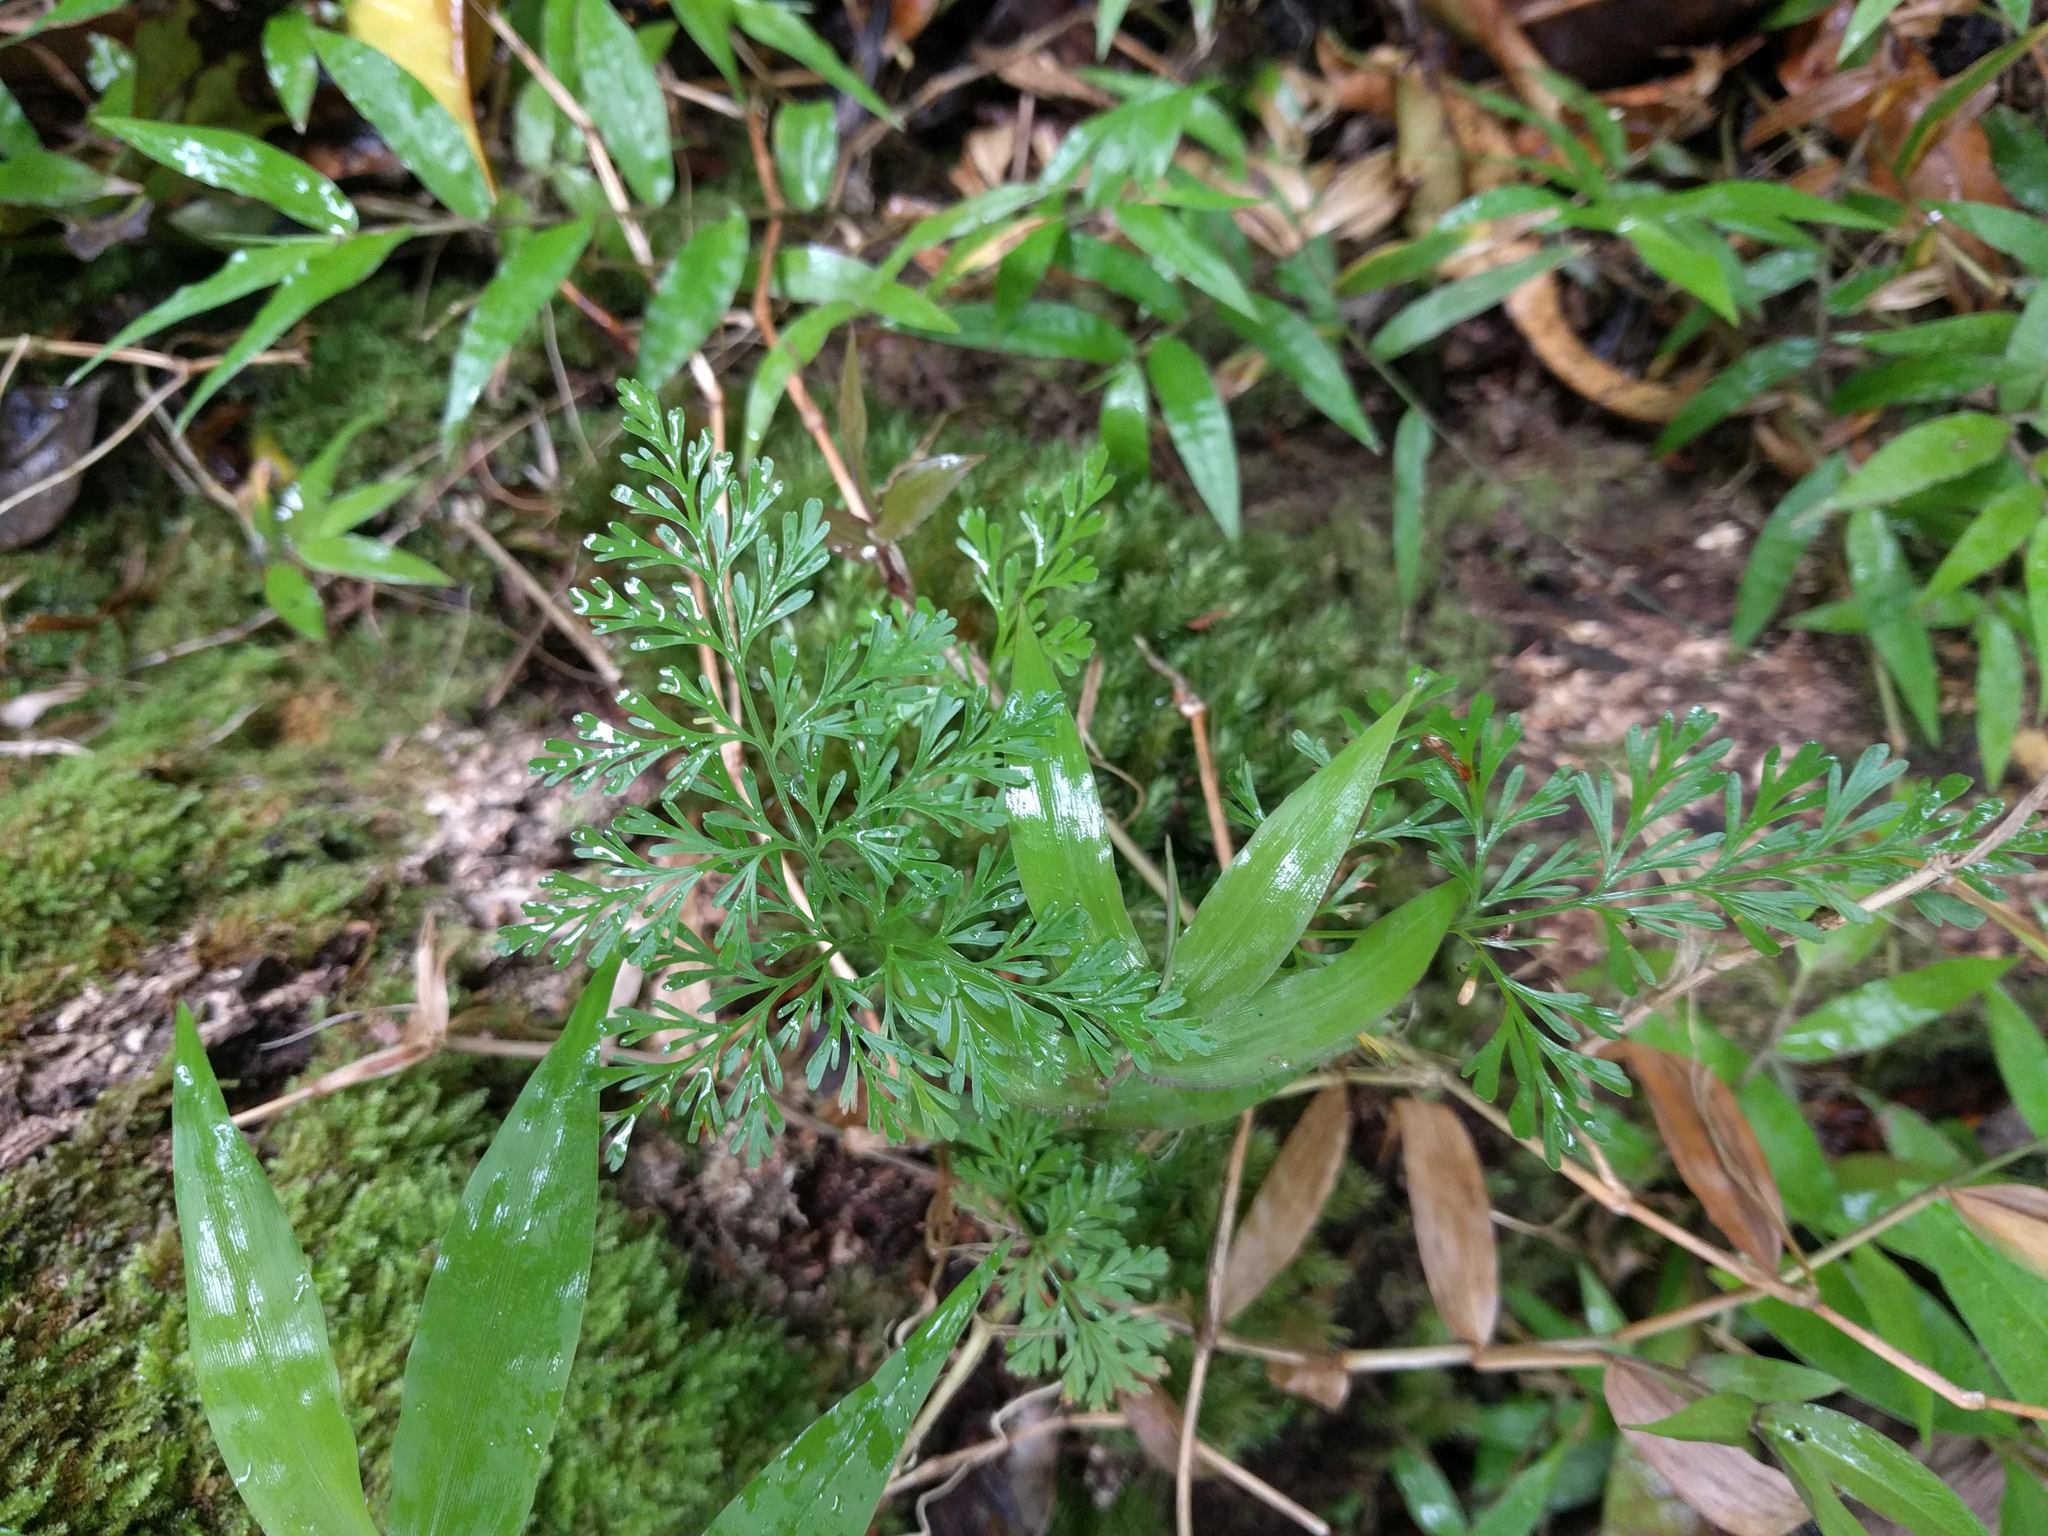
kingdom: Plantae
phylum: Tracheophyta
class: Polypodiopsida
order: Polypodiales
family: Davalliaceae
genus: Davallia
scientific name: Davallia fejeensis
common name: Lacy hare's-foot fern
